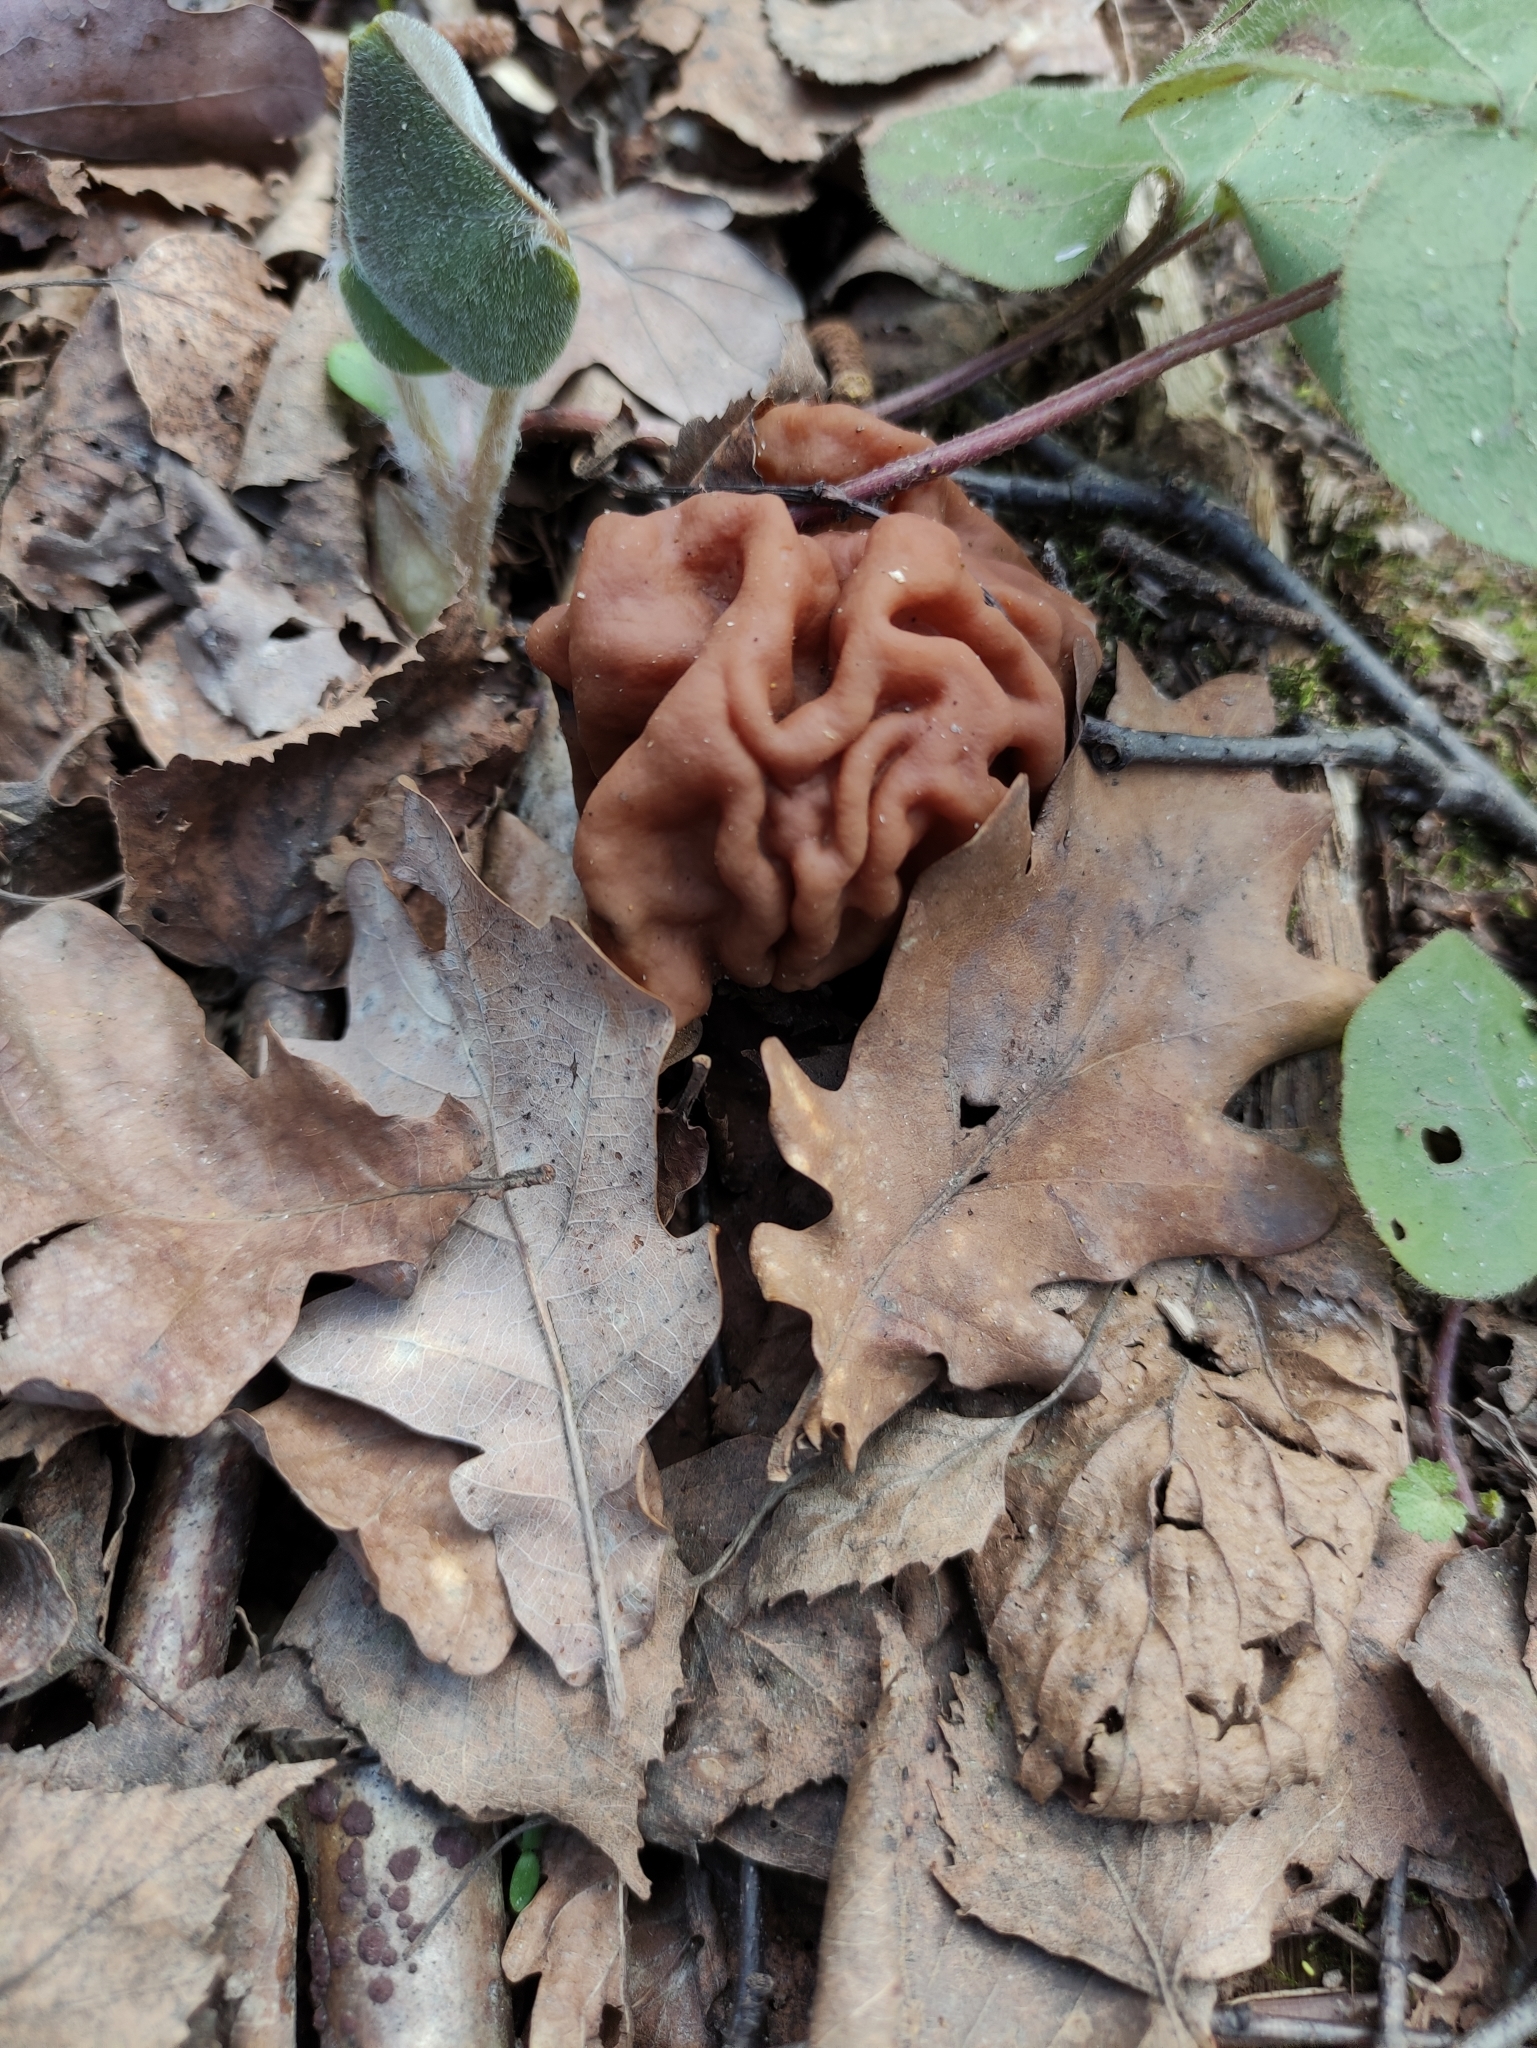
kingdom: Fungi
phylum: Ascomycota
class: Pezizomycetes
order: Pezizales
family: Discinaceae
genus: Gyromitra
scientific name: Gyromitra gigas
